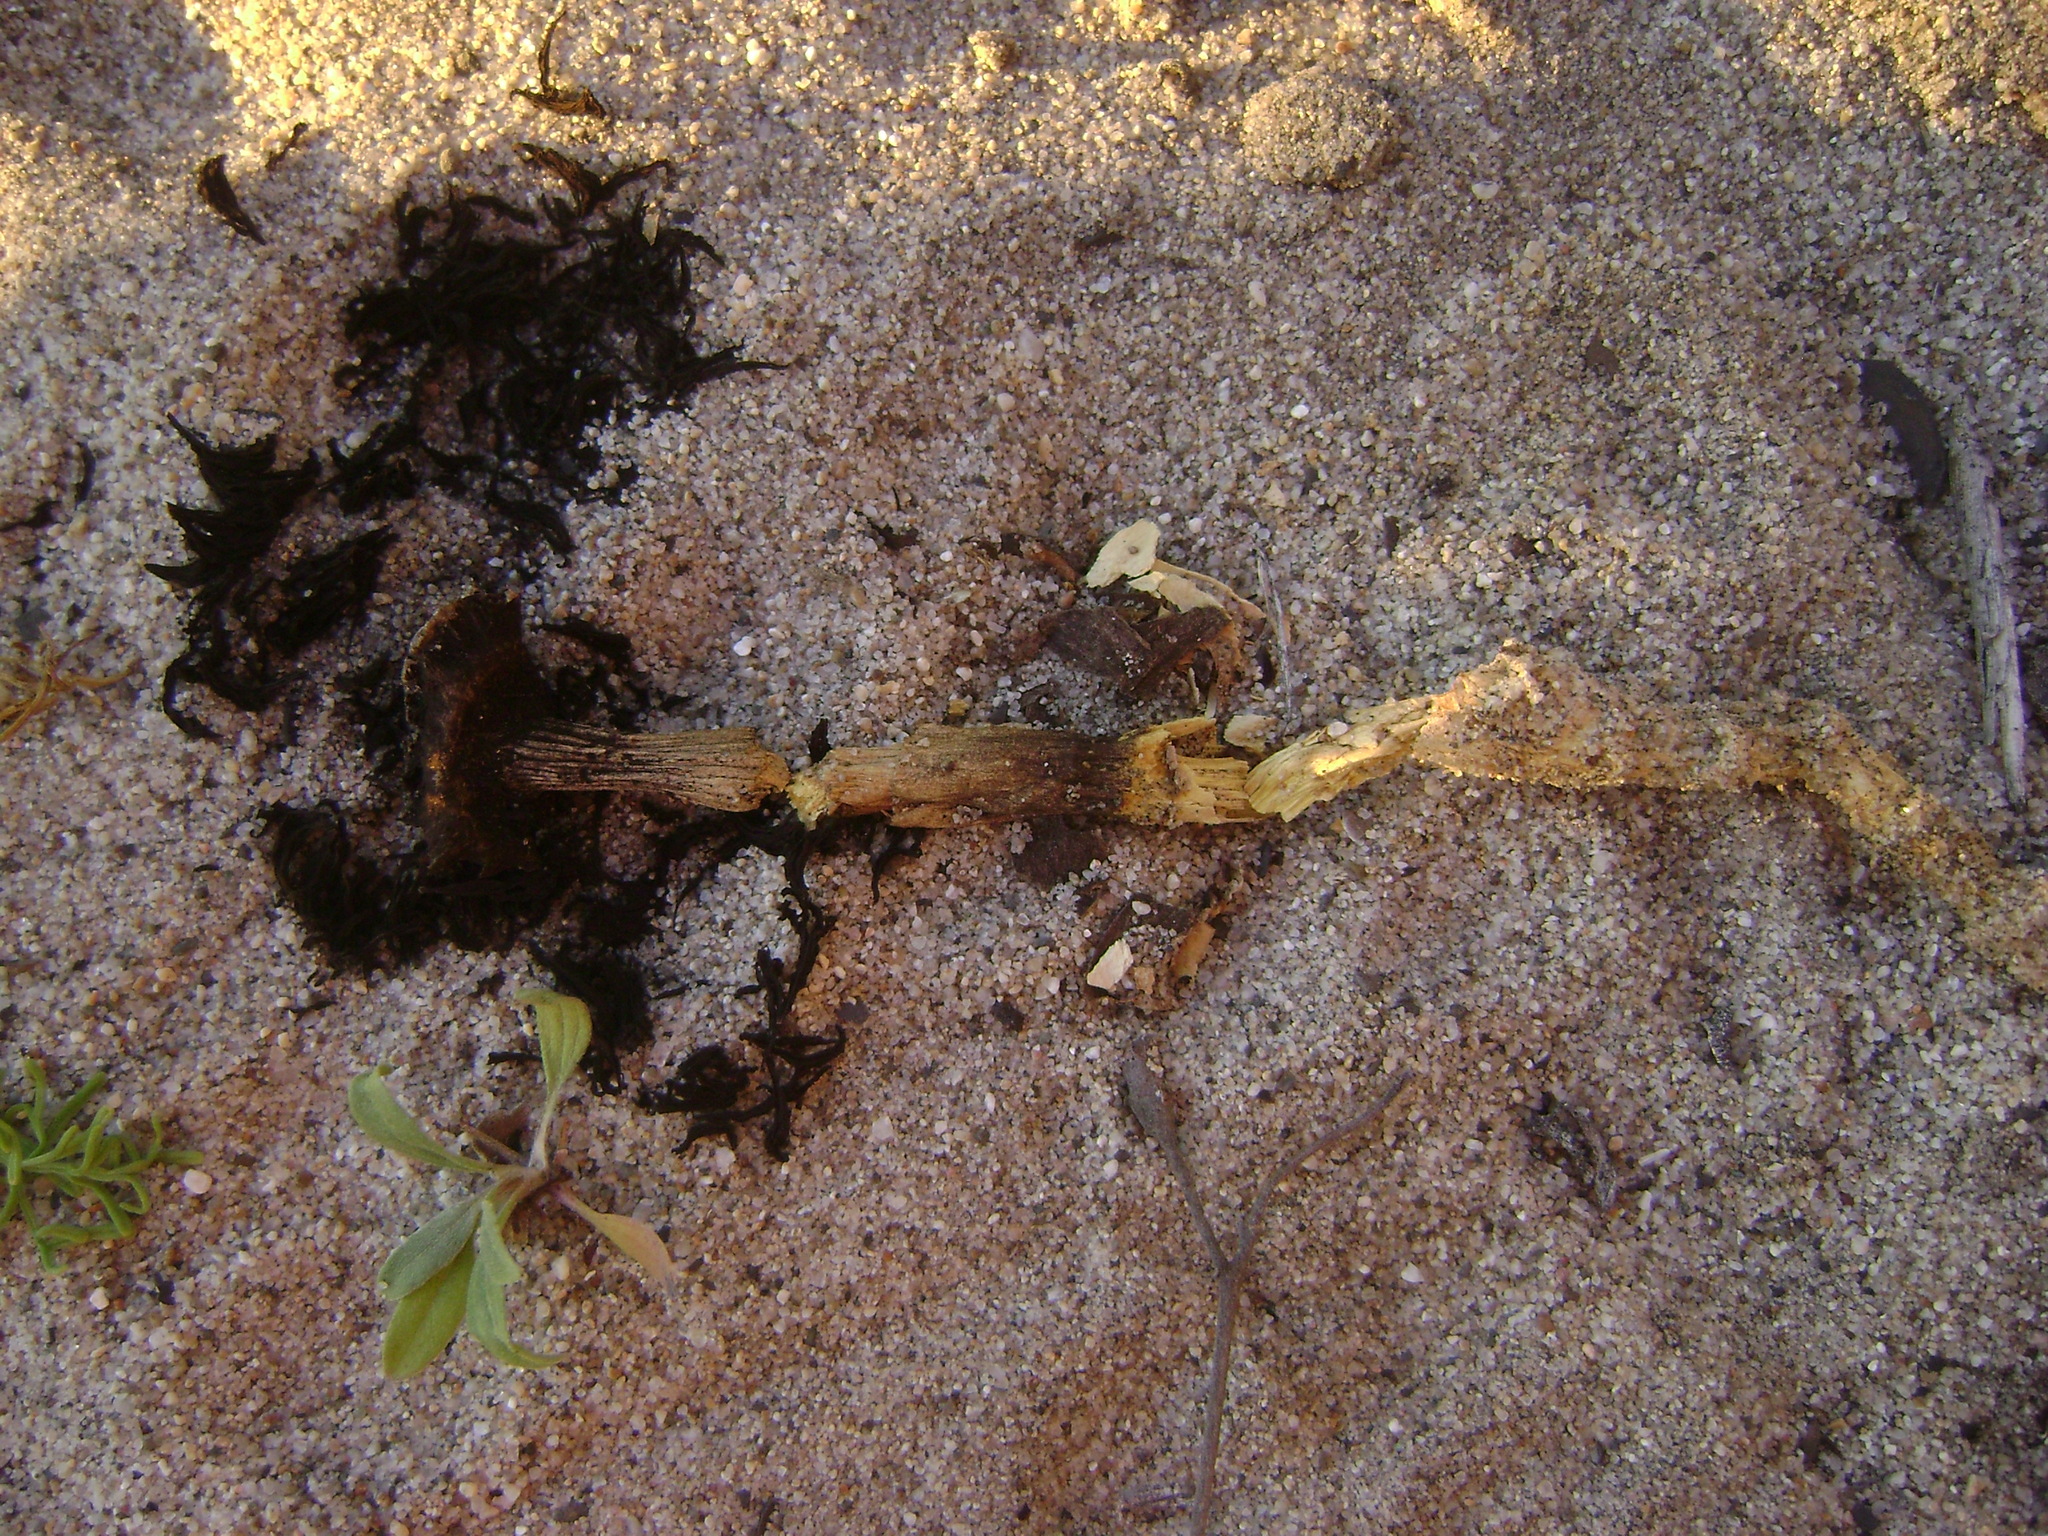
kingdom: Fungi
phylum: Basidiomycota
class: Agaricomycetes
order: Agaricales
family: Agaricaceae
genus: Agaricus
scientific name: Agaricus zelleri
